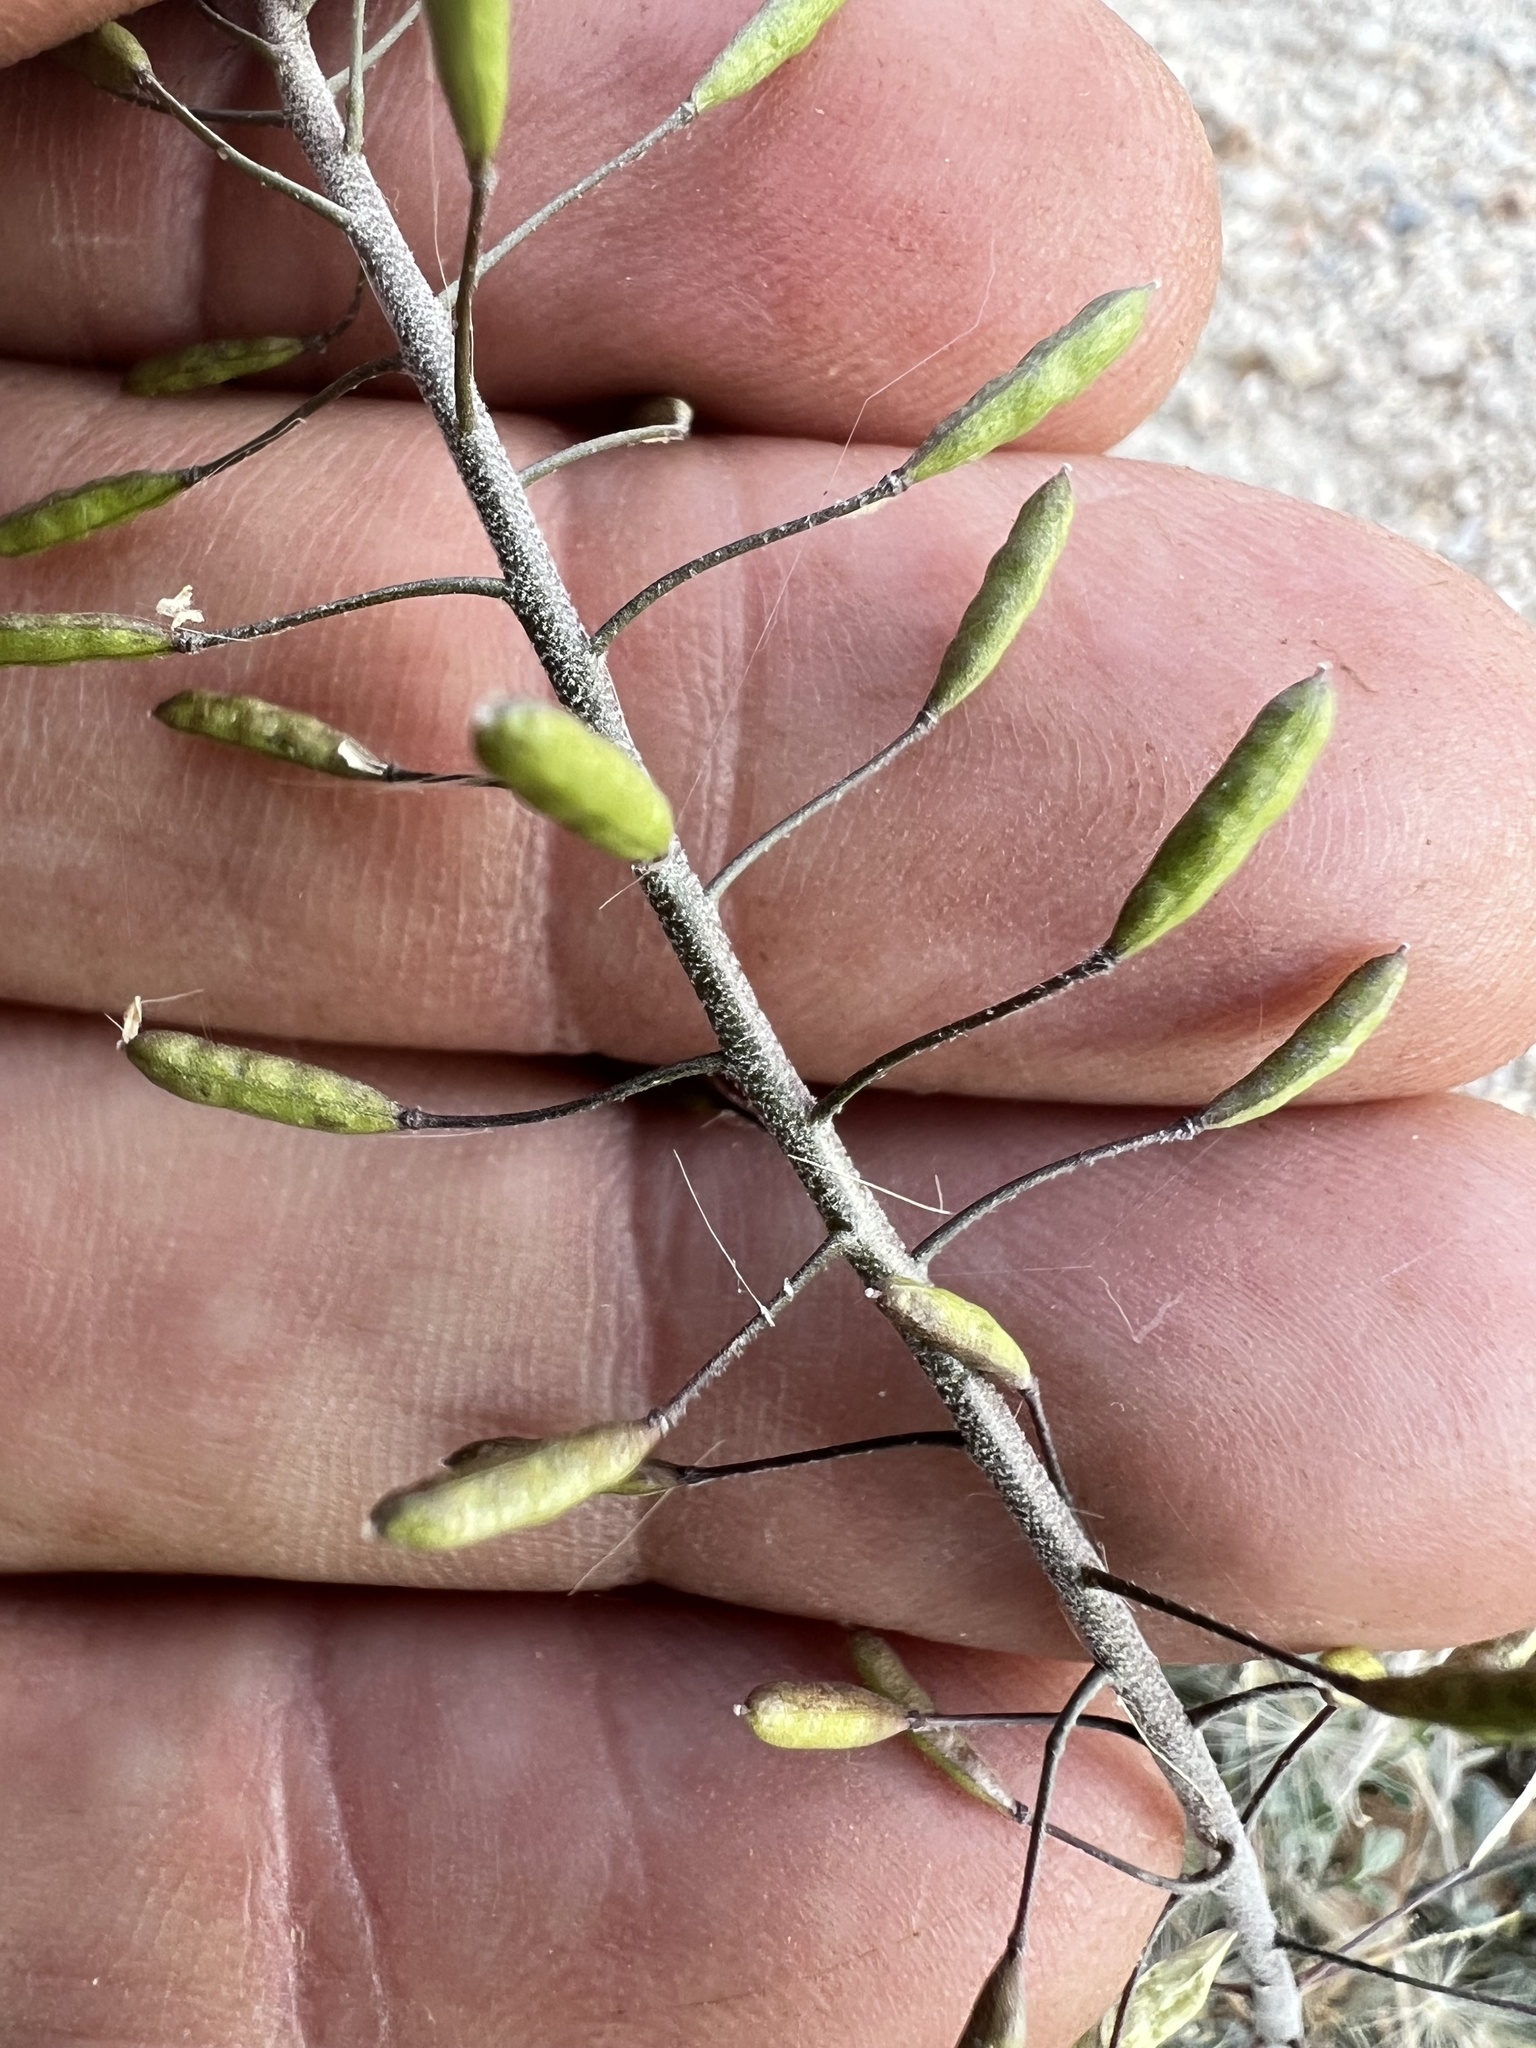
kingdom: Plantae
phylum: Tracheophyta
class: Magnoliopsida
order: Brassicales
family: Brassicaceae
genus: Descurainia
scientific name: Descurainia paradisa
